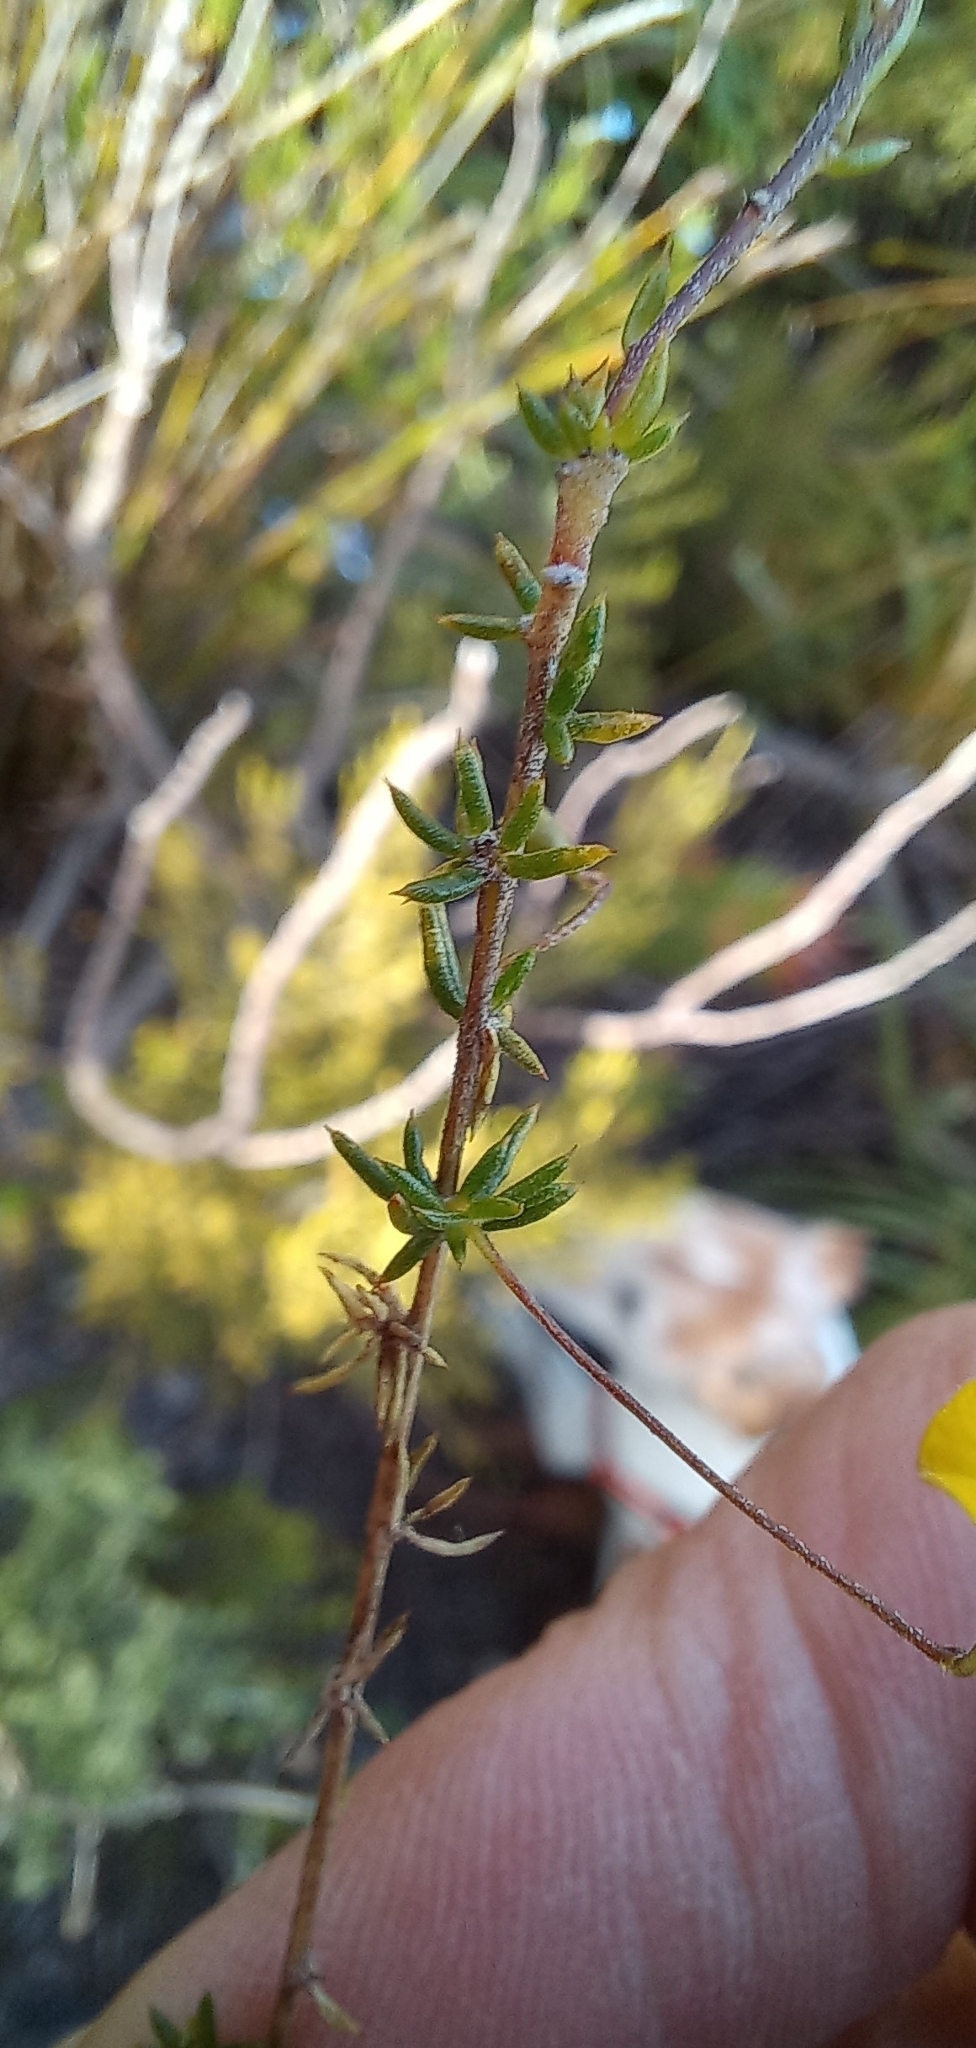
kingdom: Plantae
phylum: Tracheophyta
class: Magnoliopsida
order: Fabales
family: Fabaceae
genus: Aspalathus
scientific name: Aspalathus serpens
